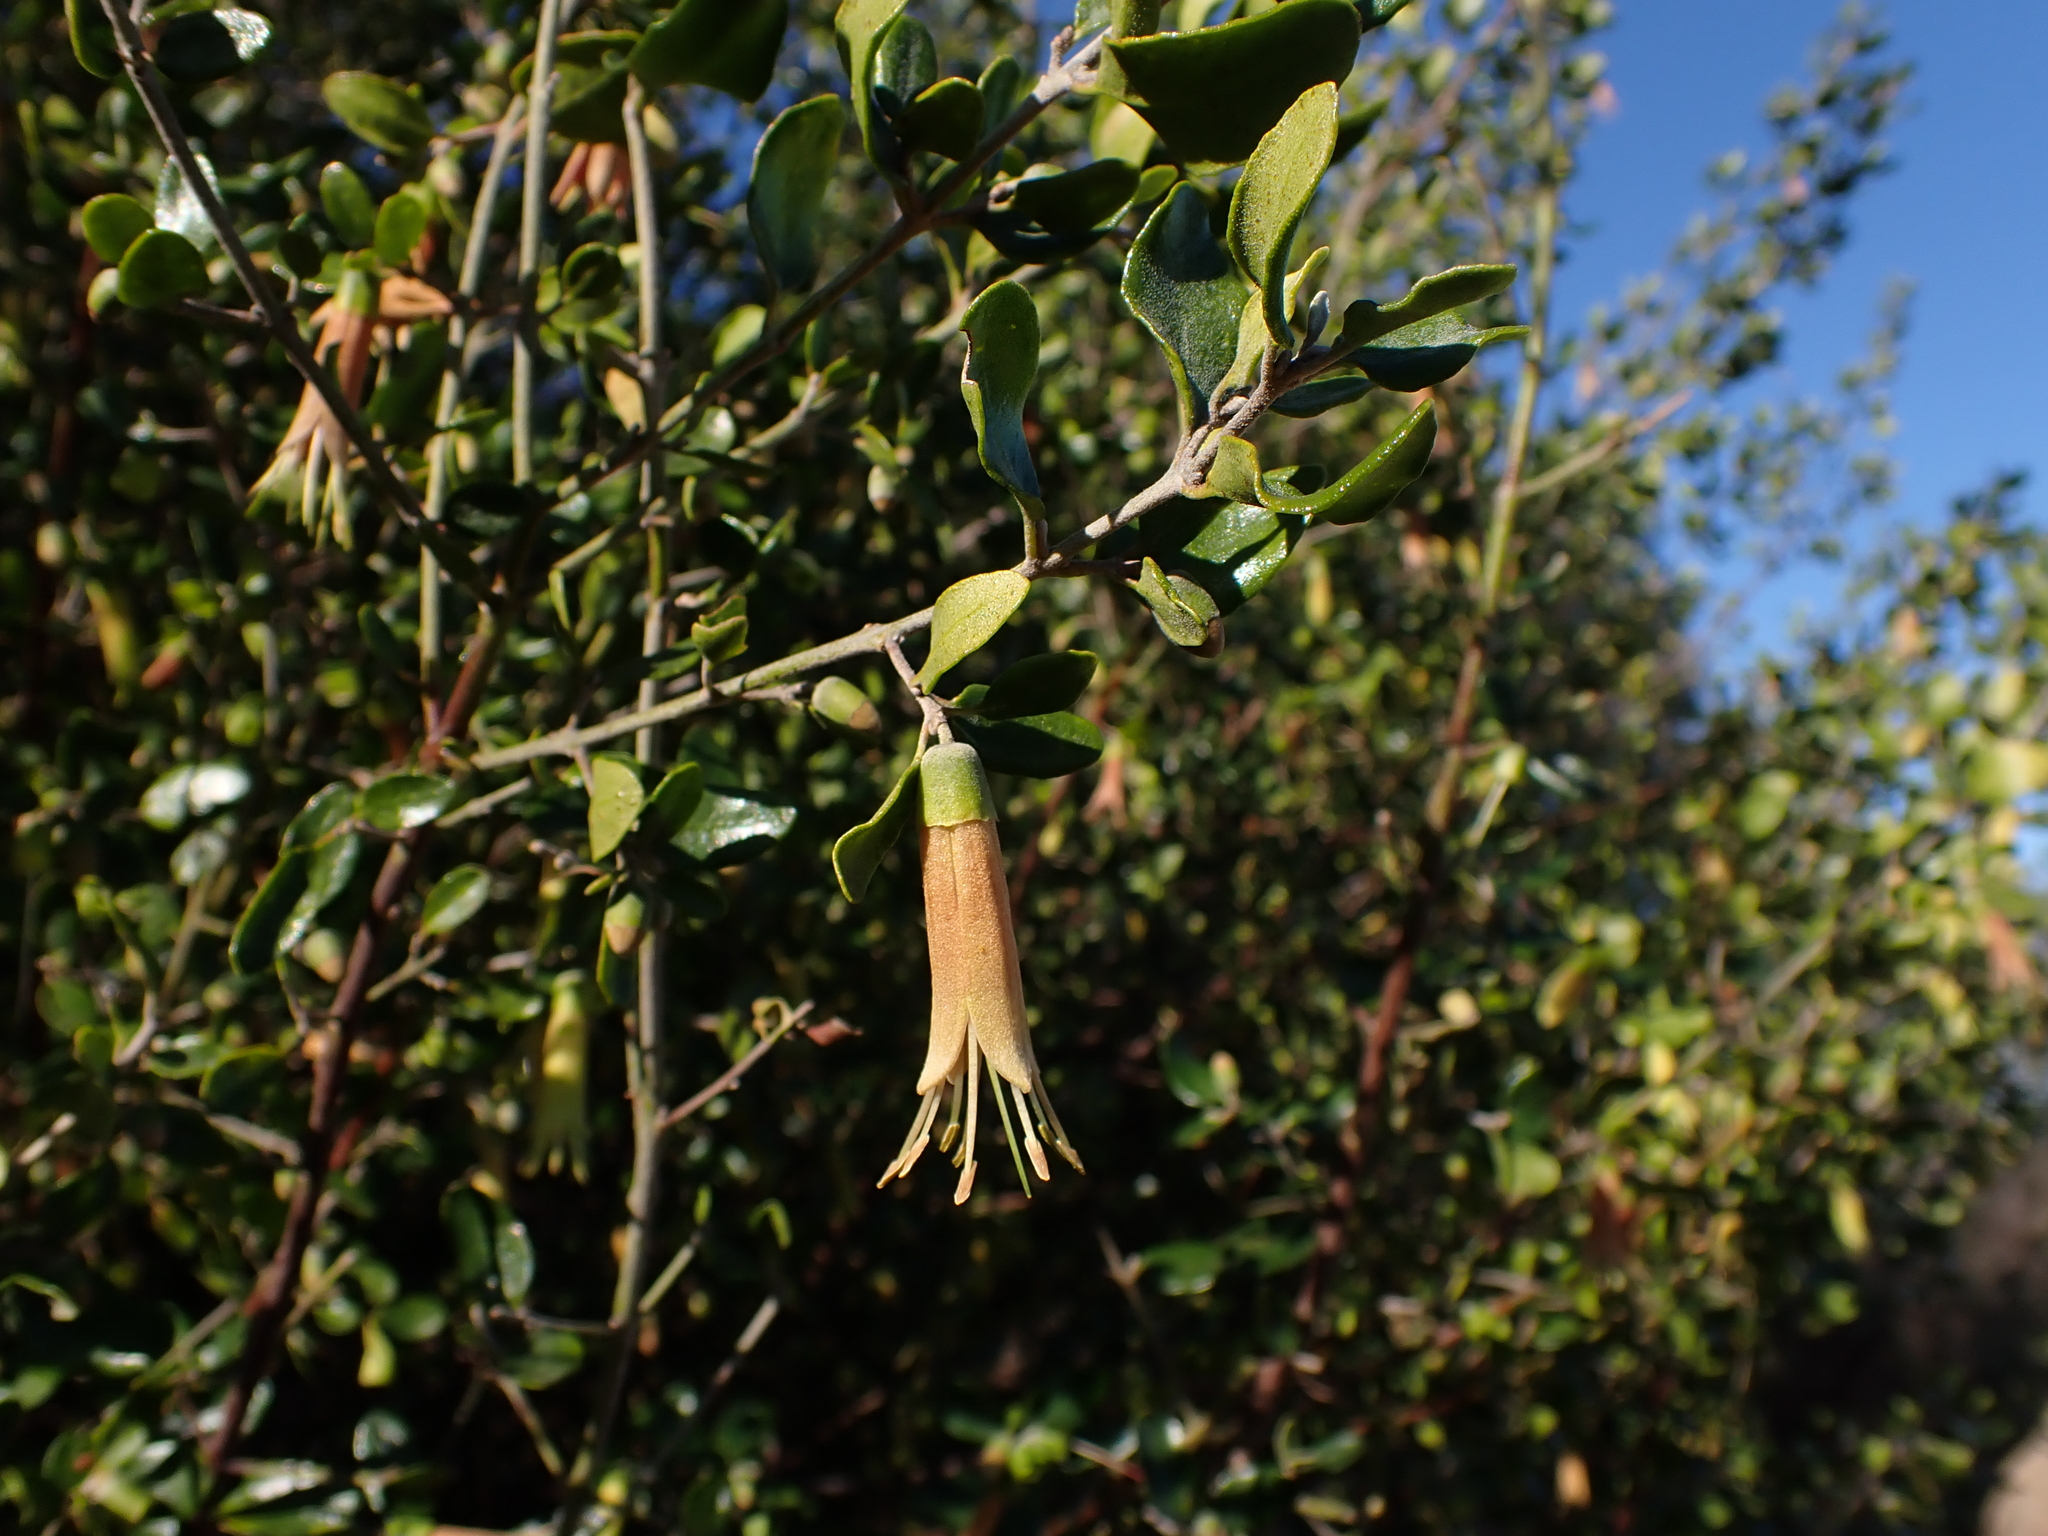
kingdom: Plantae
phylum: Tracheophyta
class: Magnoliopsida
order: Sapindales
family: Rutaceae
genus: Correa
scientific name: Correa glabra
